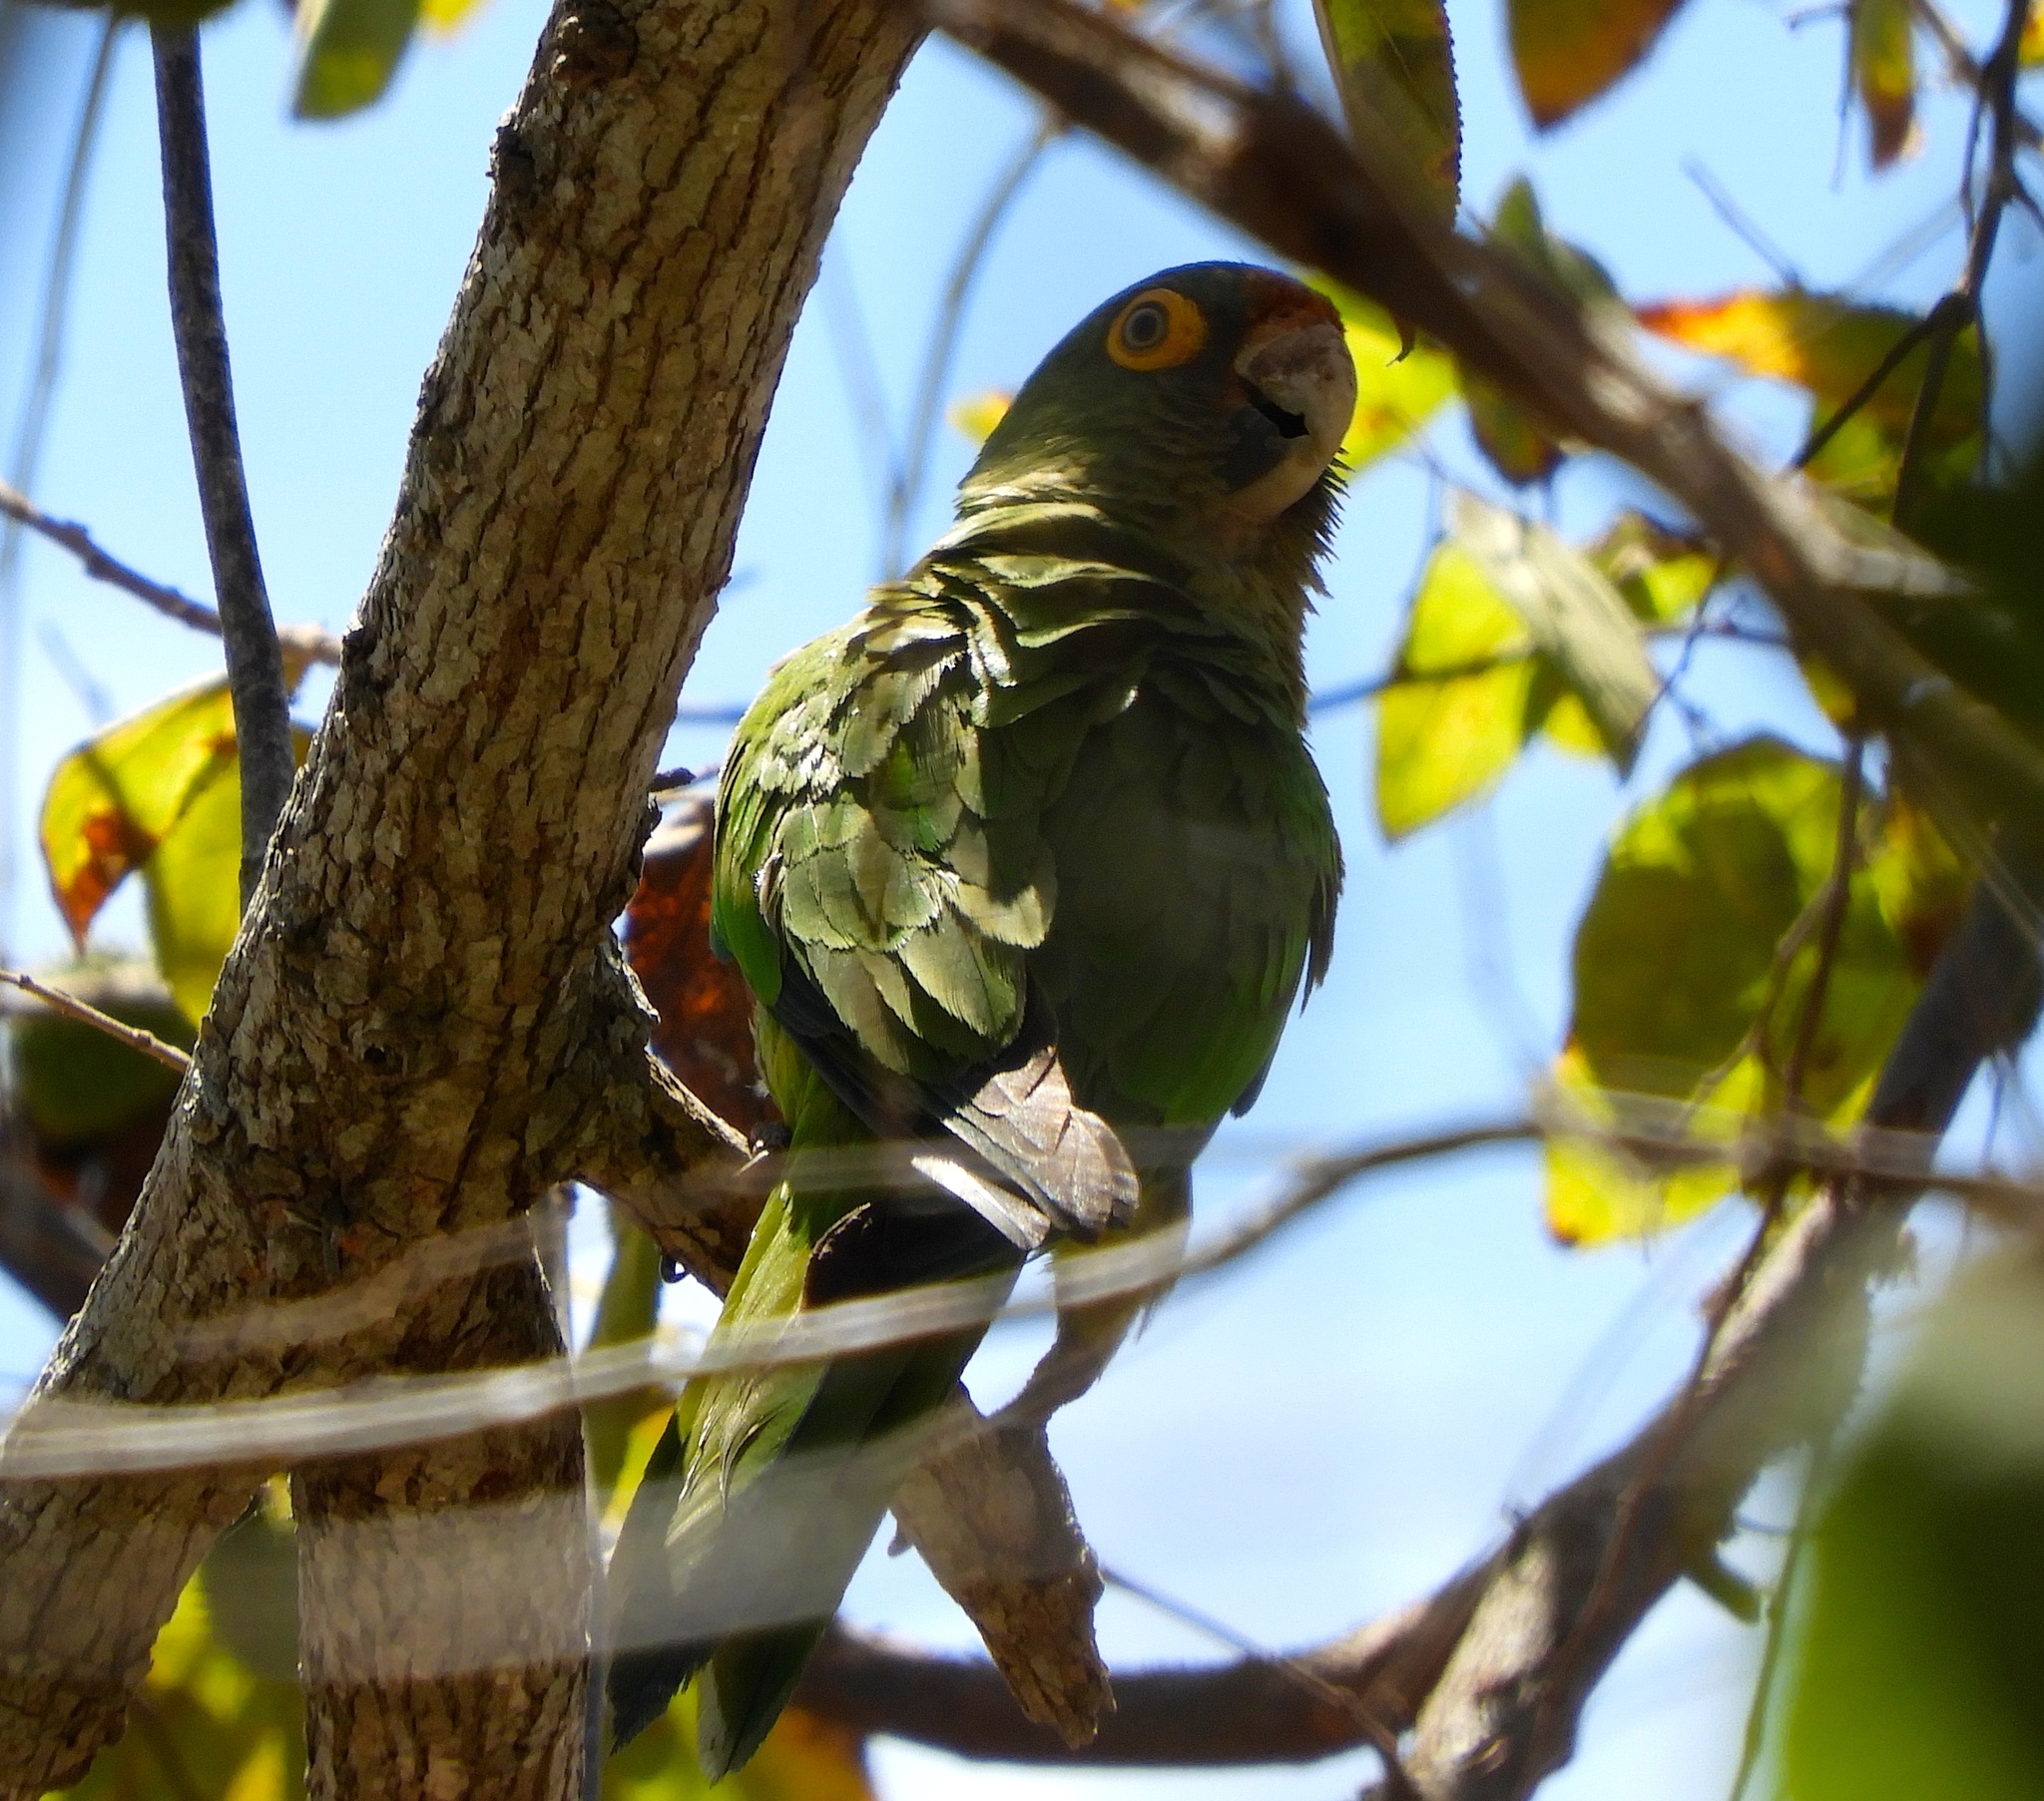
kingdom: Animalia
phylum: Chordata
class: Aves
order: Psittaciformes
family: Psittacidae
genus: Aratinga
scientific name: Aratinga canicularis
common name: Orange-fronted parakeet
